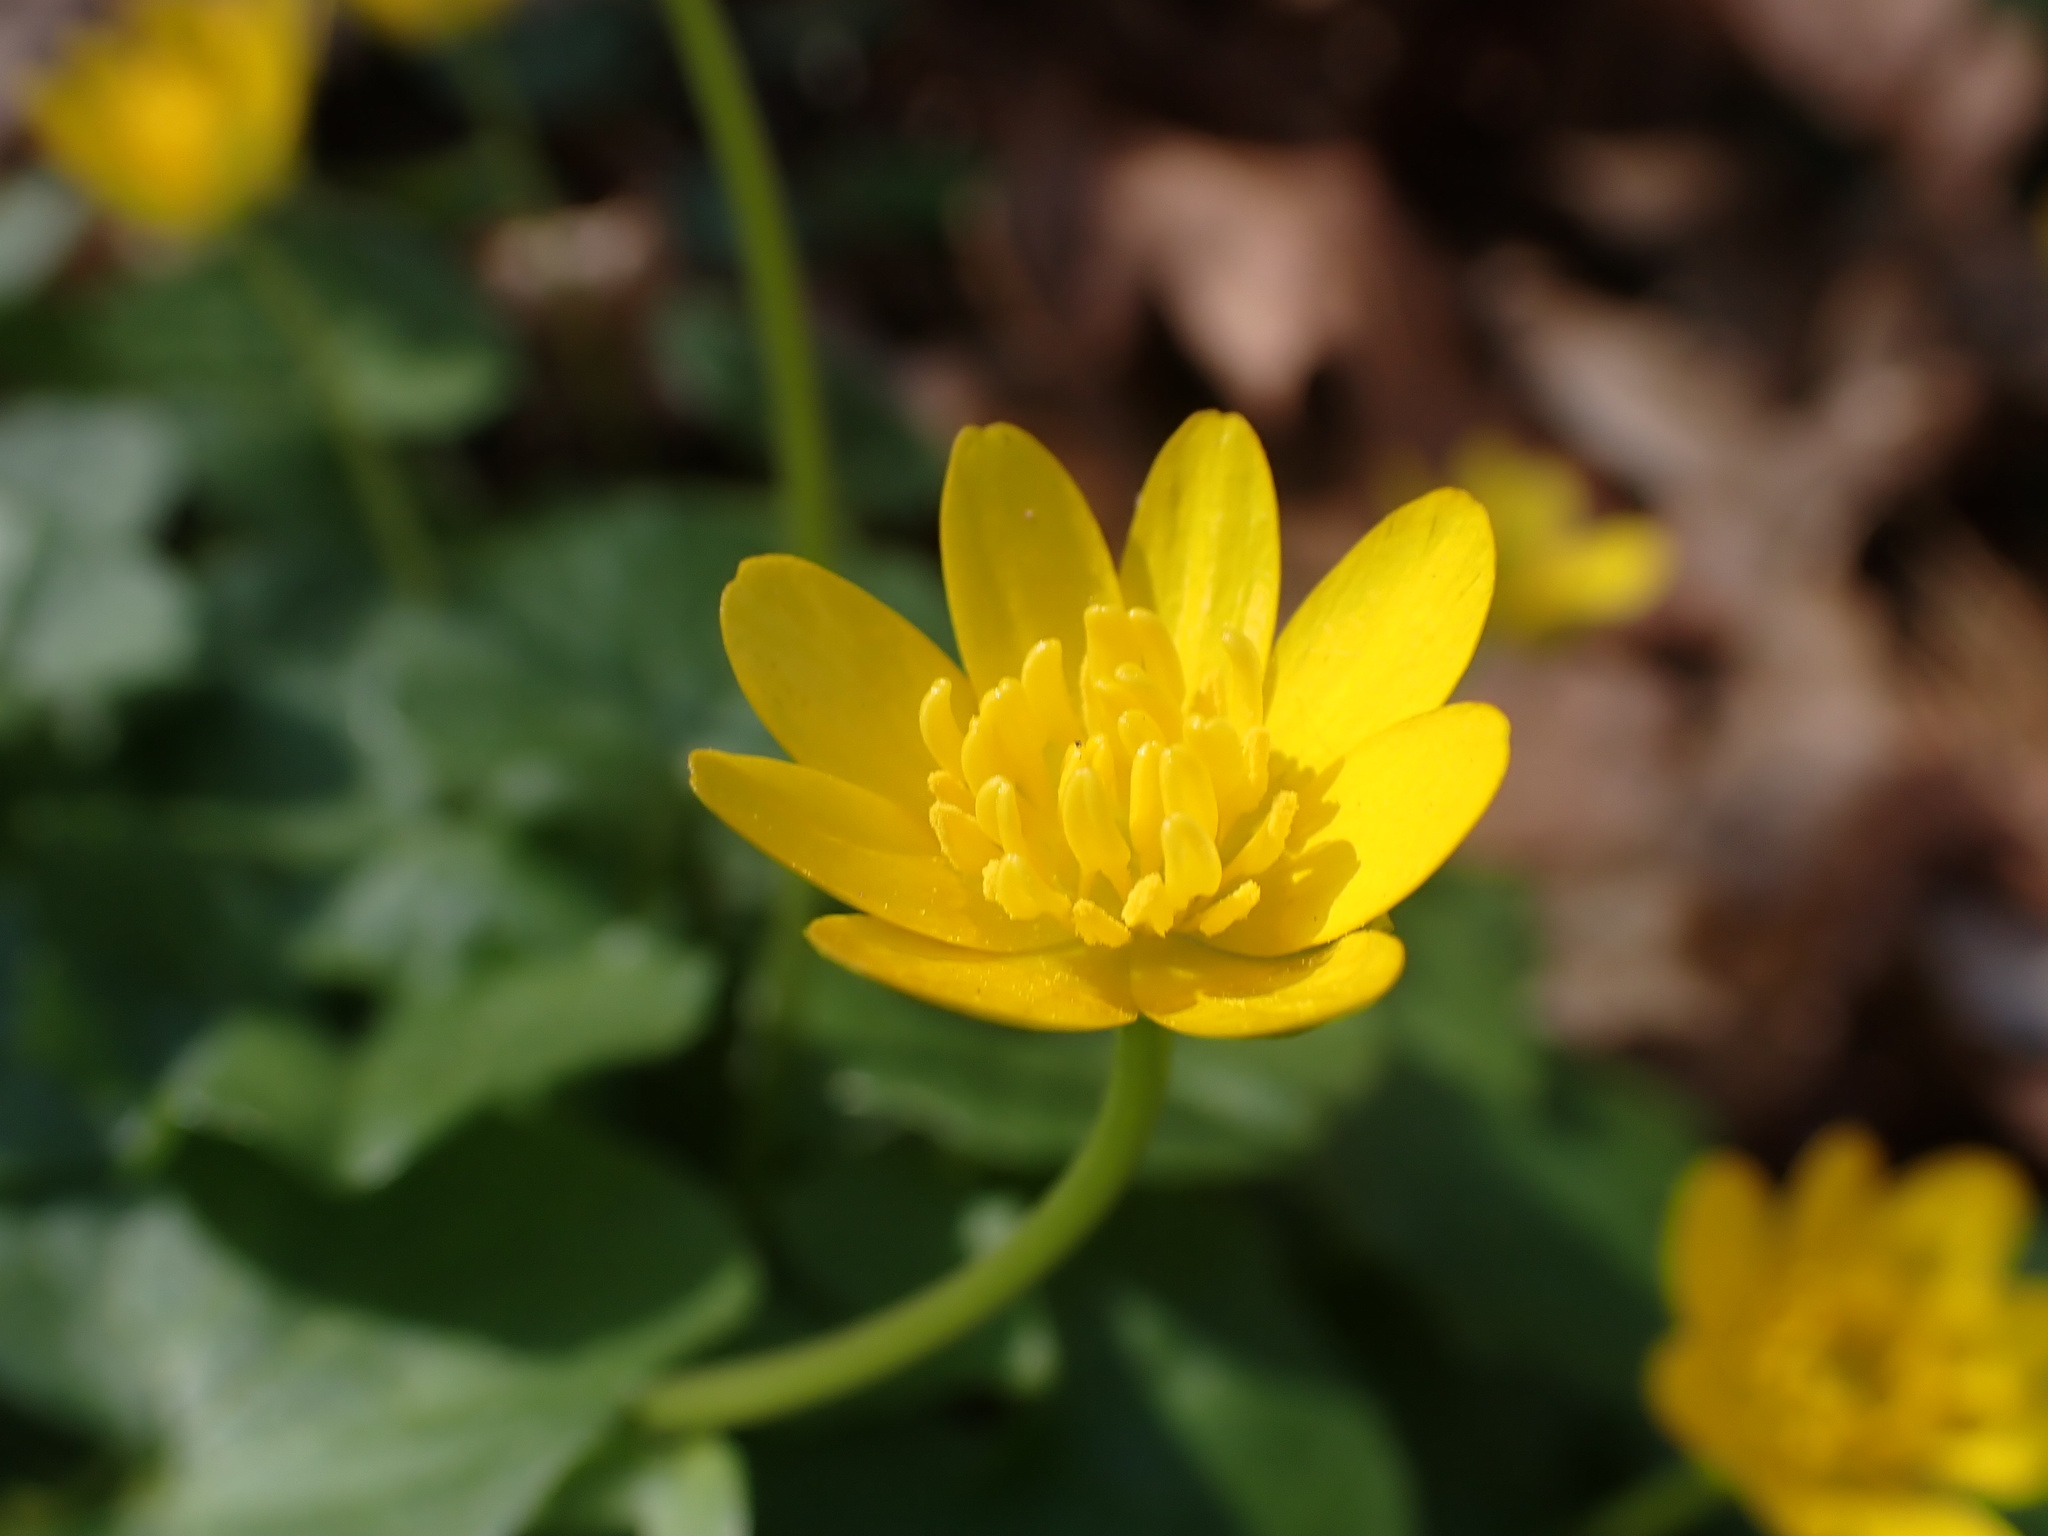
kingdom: Plantae
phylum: Tracheophyta
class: Magnoliopsida
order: Ranunculales
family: Ranunculaceae
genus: Ficaria
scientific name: Ficaria verna
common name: Lesser celandine
